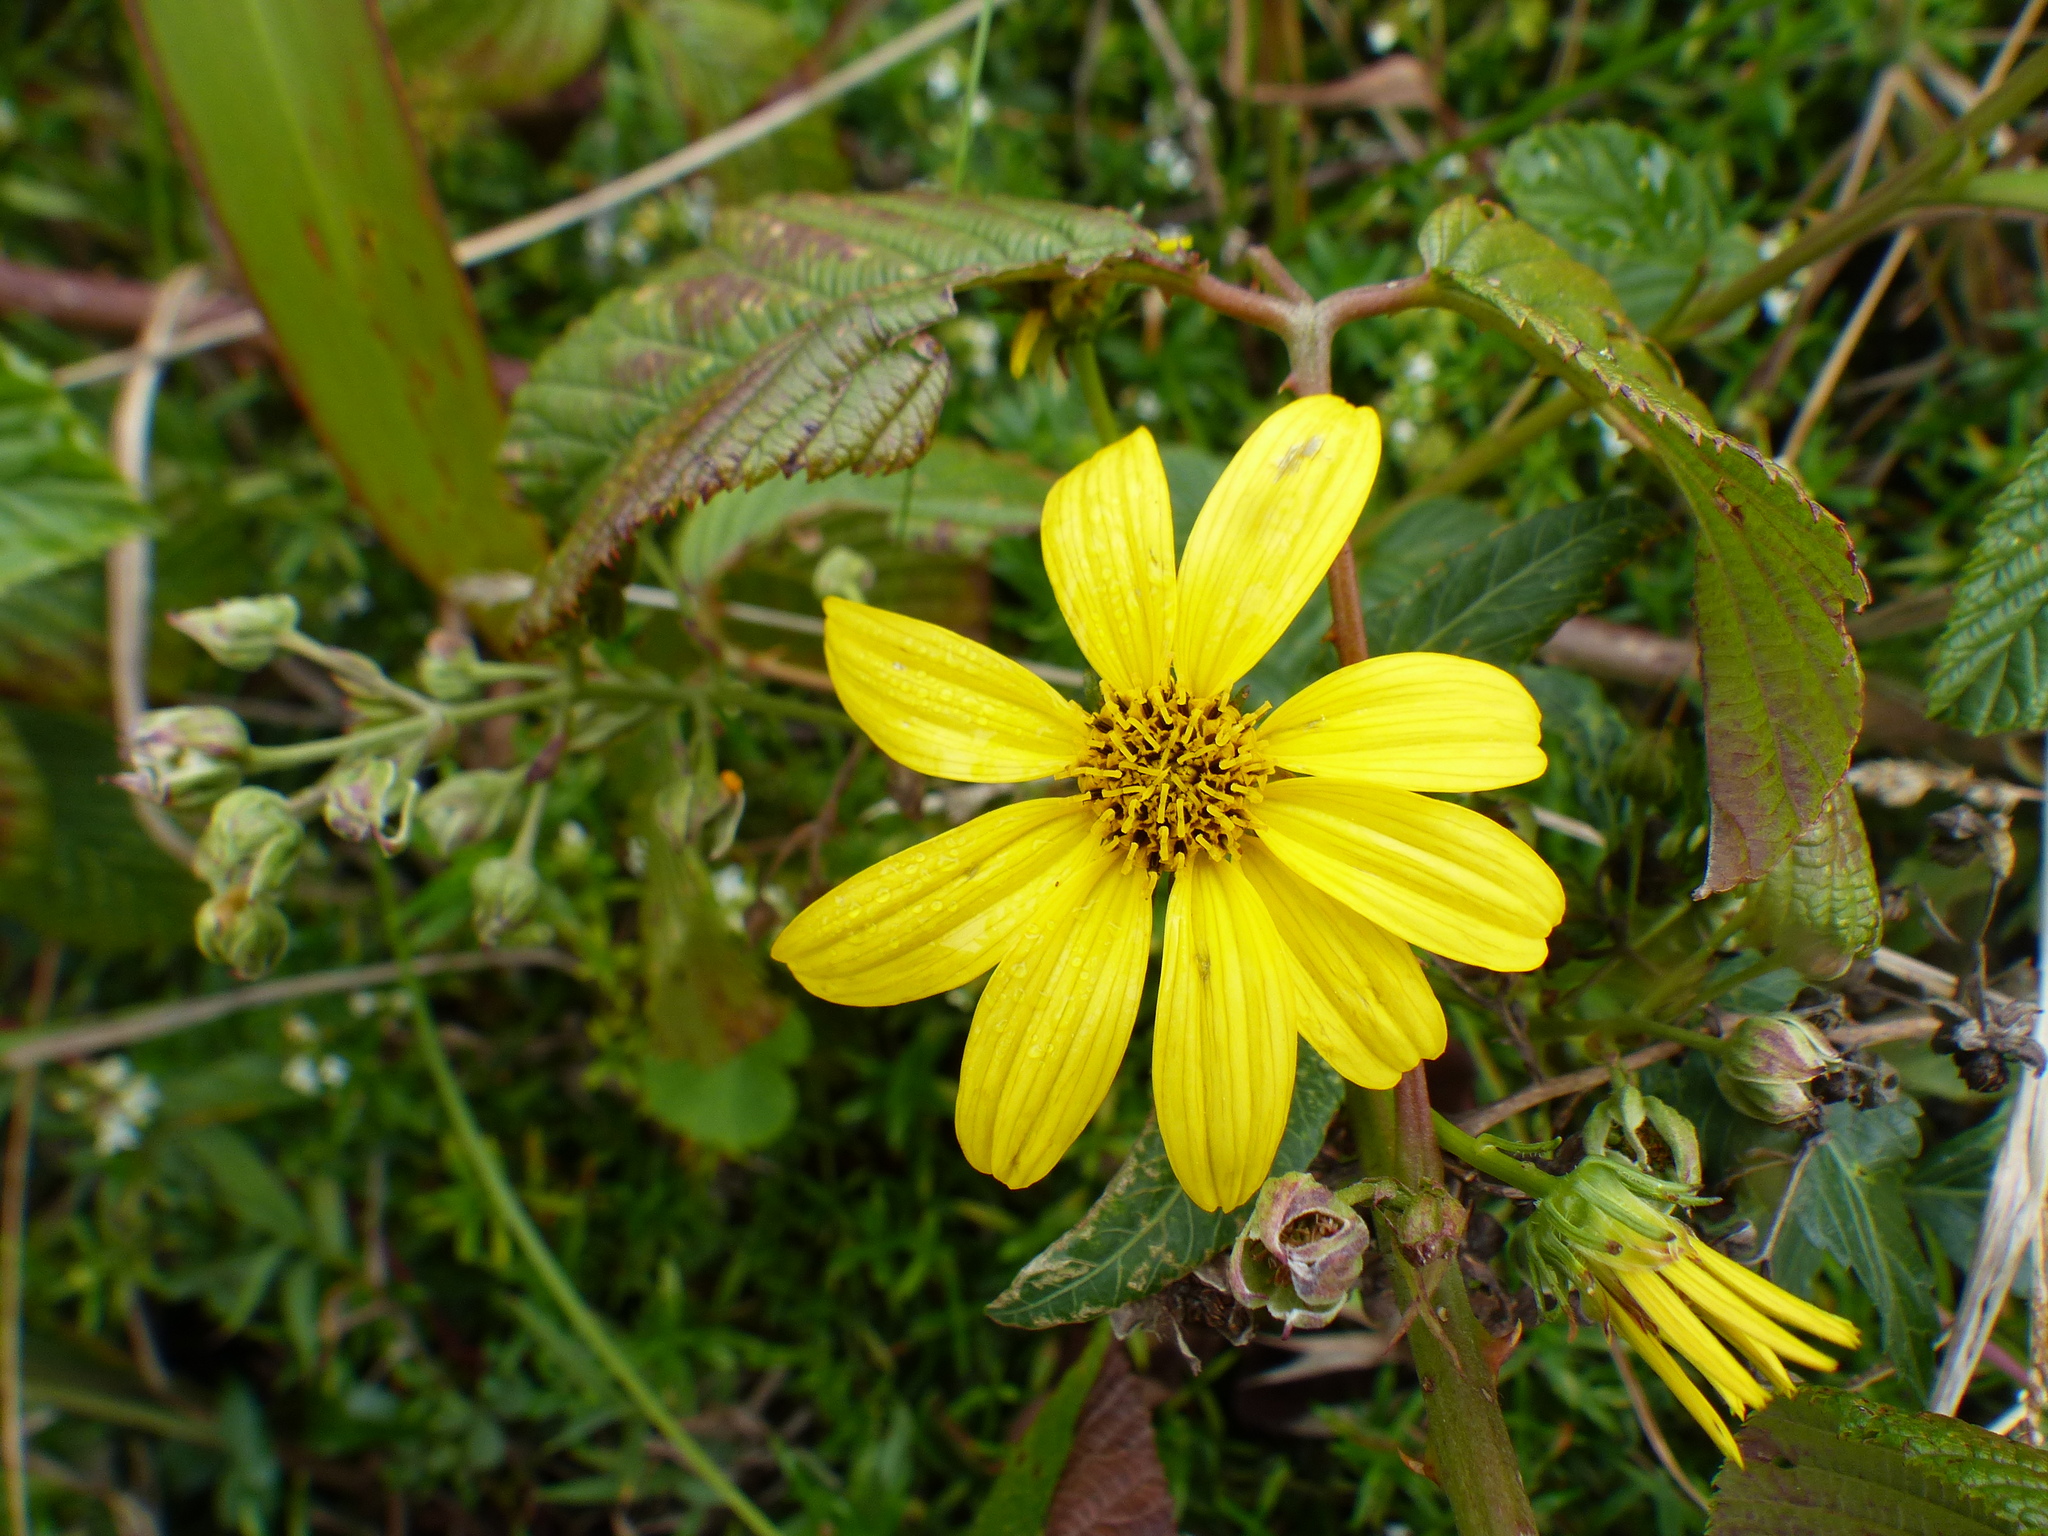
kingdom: Plantae
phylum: Tracheophyta
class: Magnoliopsida
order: Asterales
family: Asteraceae
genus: Bidens
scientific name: Bidens rubifolia
